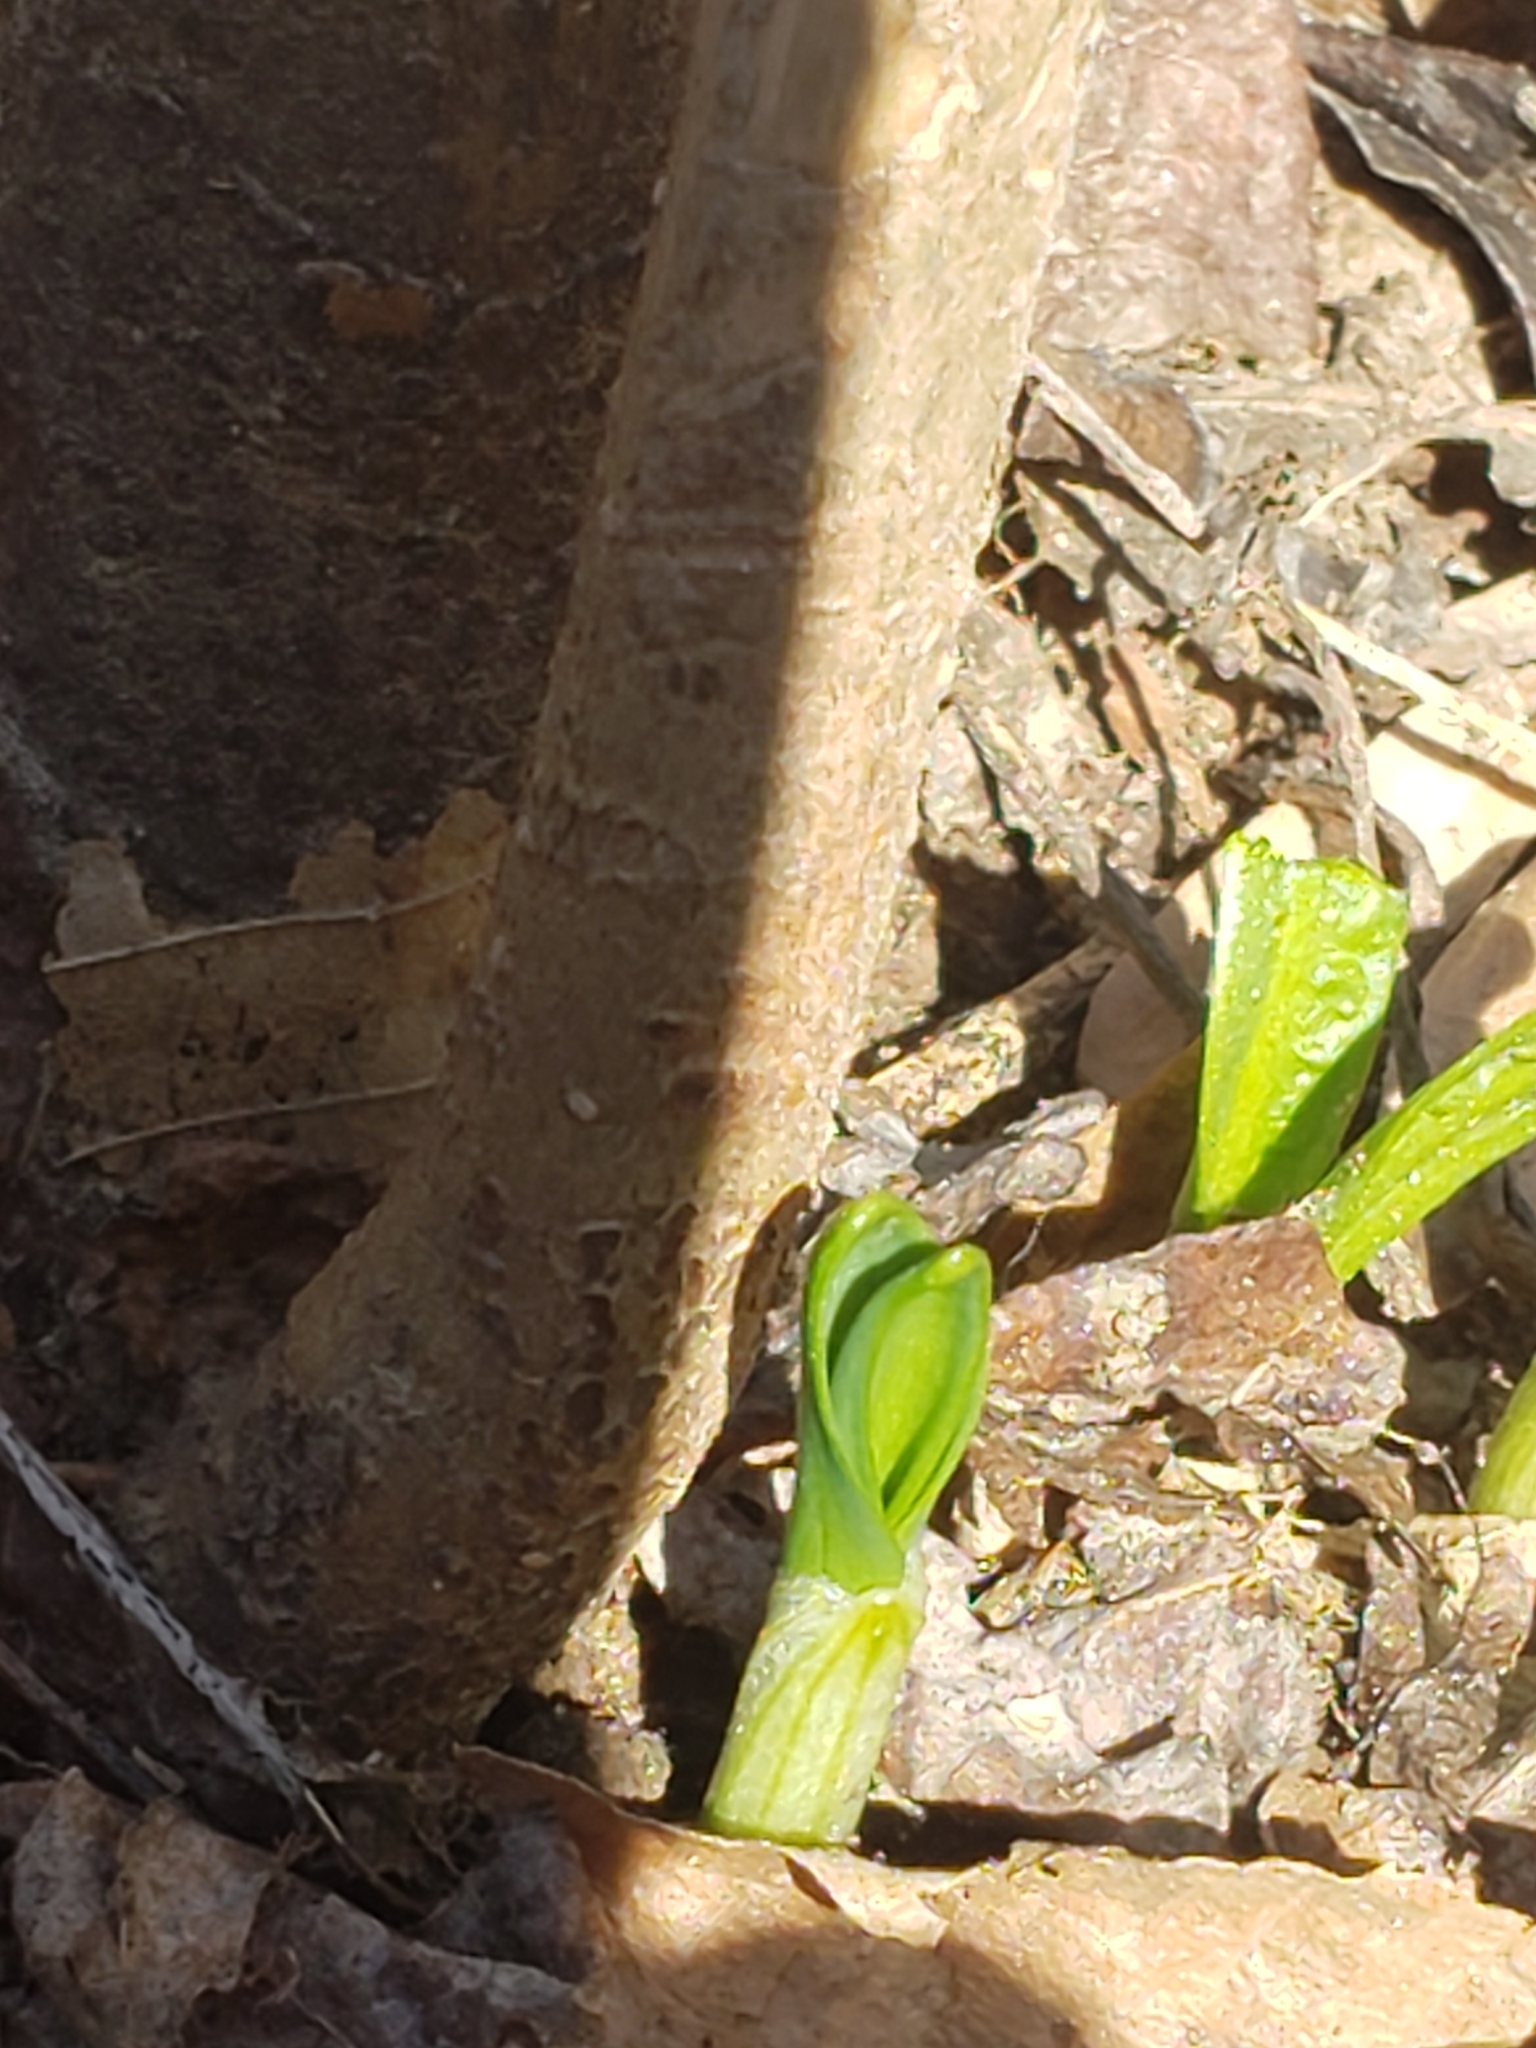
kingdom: Plantae
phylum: Tracheophyta
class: Liliopsida
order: Asparagales
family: Amaryllidaceae
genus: Allium
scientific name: Allium tricoccum
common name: Ramp
